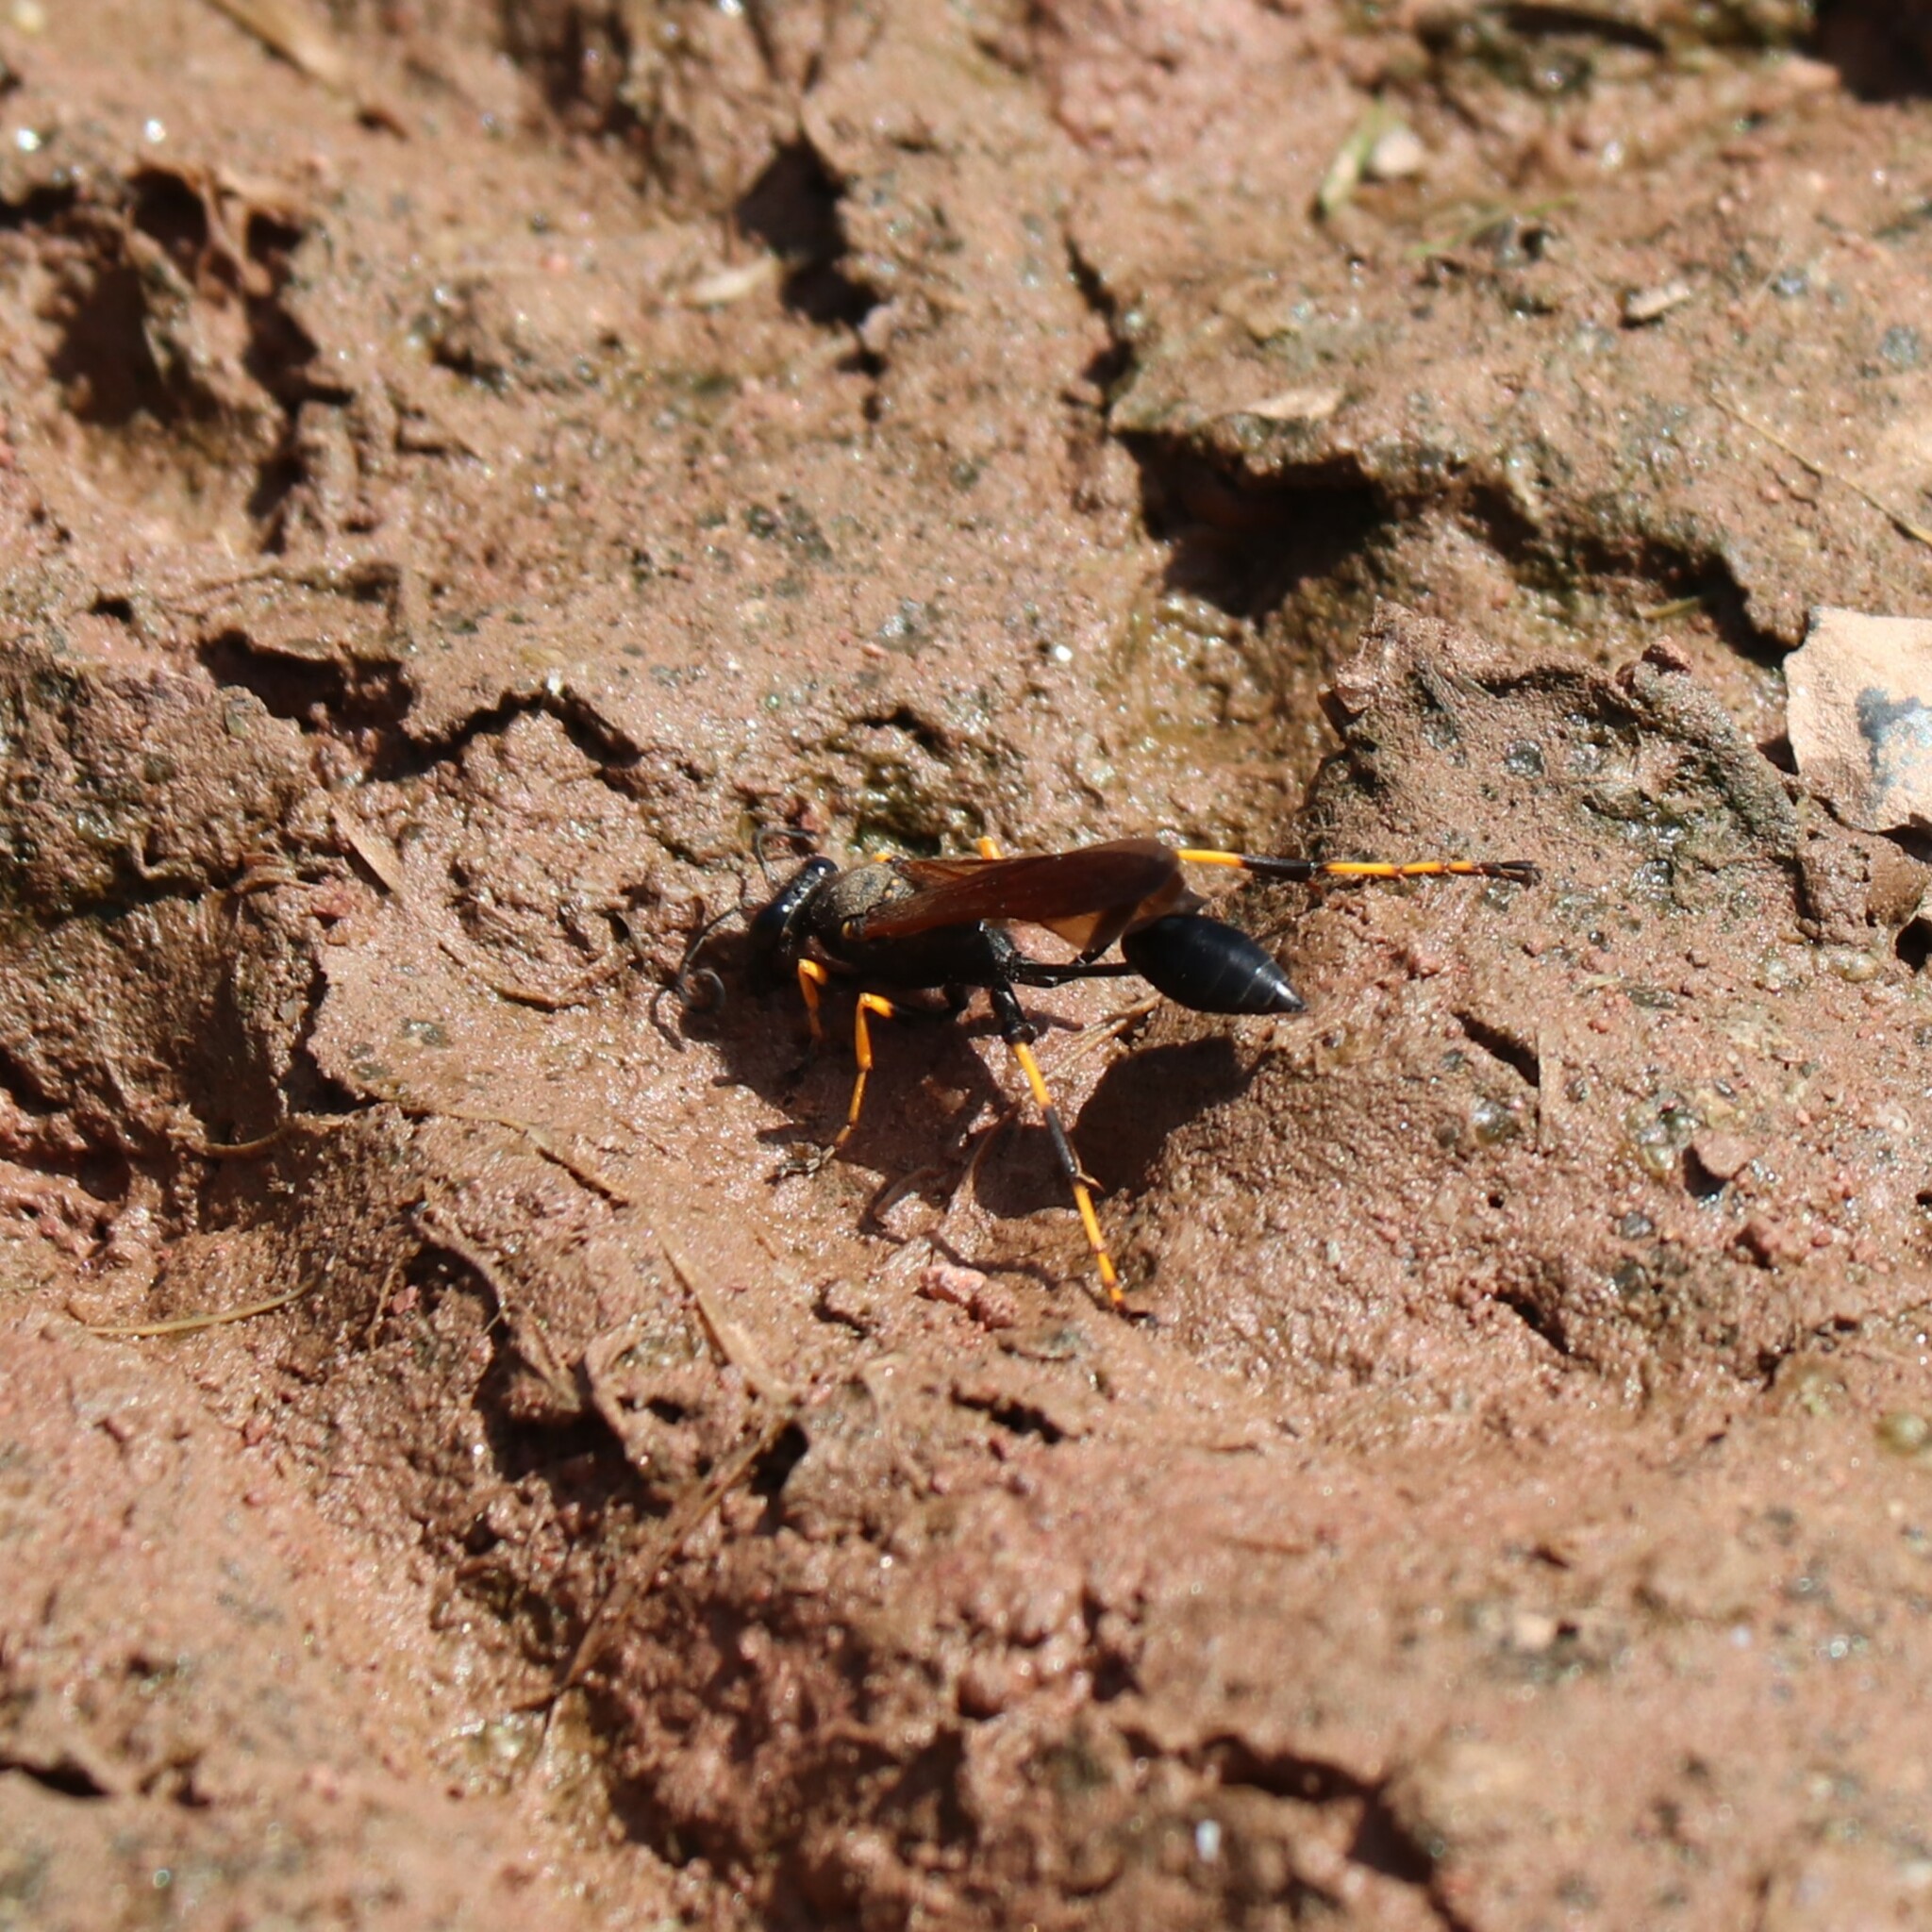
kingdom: Animalia
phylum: Arthropoda
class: Insecta
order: Hymenoptera
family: Sphecidae
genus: Sceliphron
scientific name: Sceliphron caementarium
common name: Mud dauber
